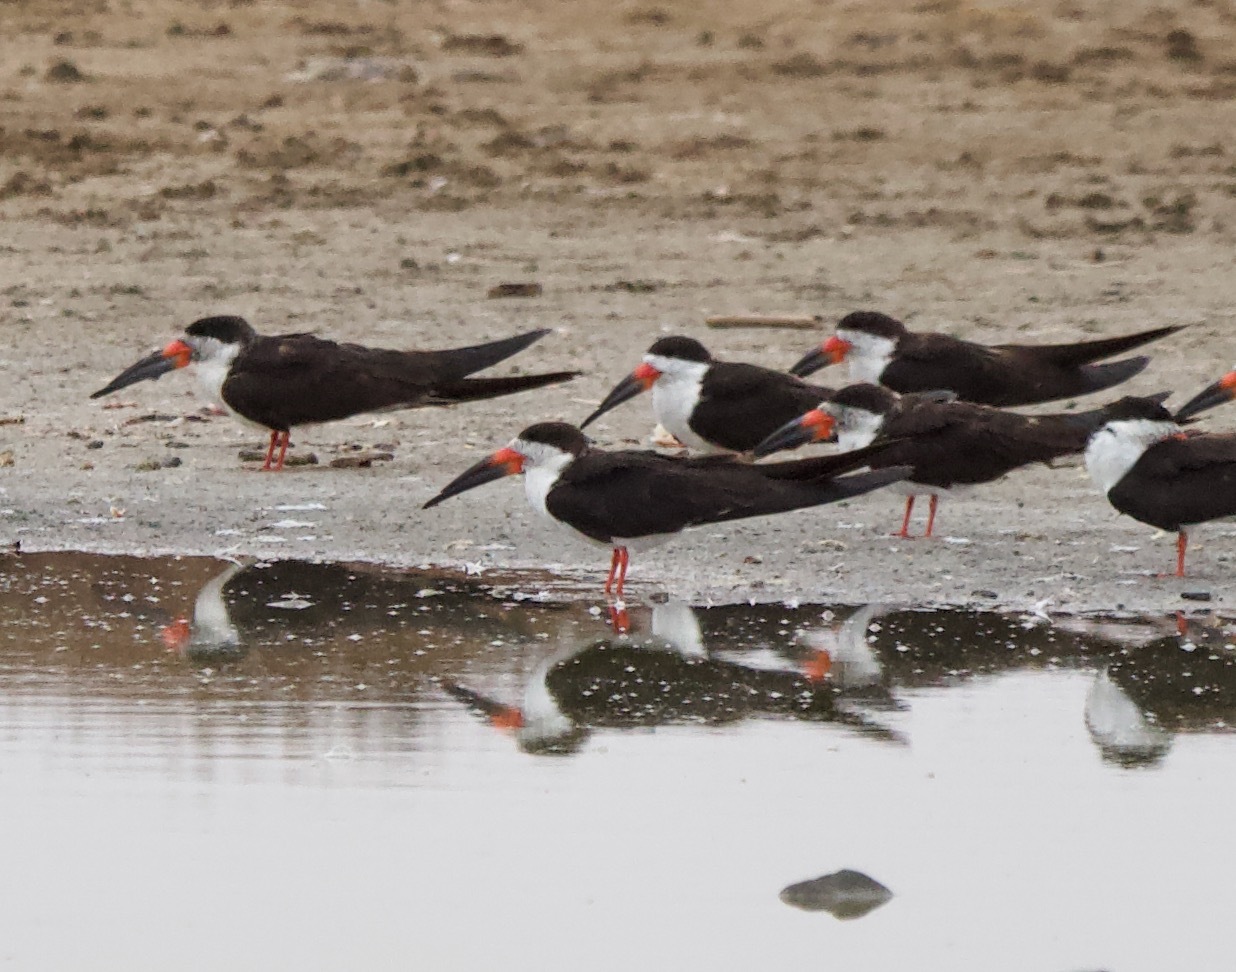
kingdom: Animalia
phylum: Chordata
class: Aves
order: Charadriiformes
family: Laridae
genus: Rynchops
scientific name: Rynchops niger
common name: Black skimmer
